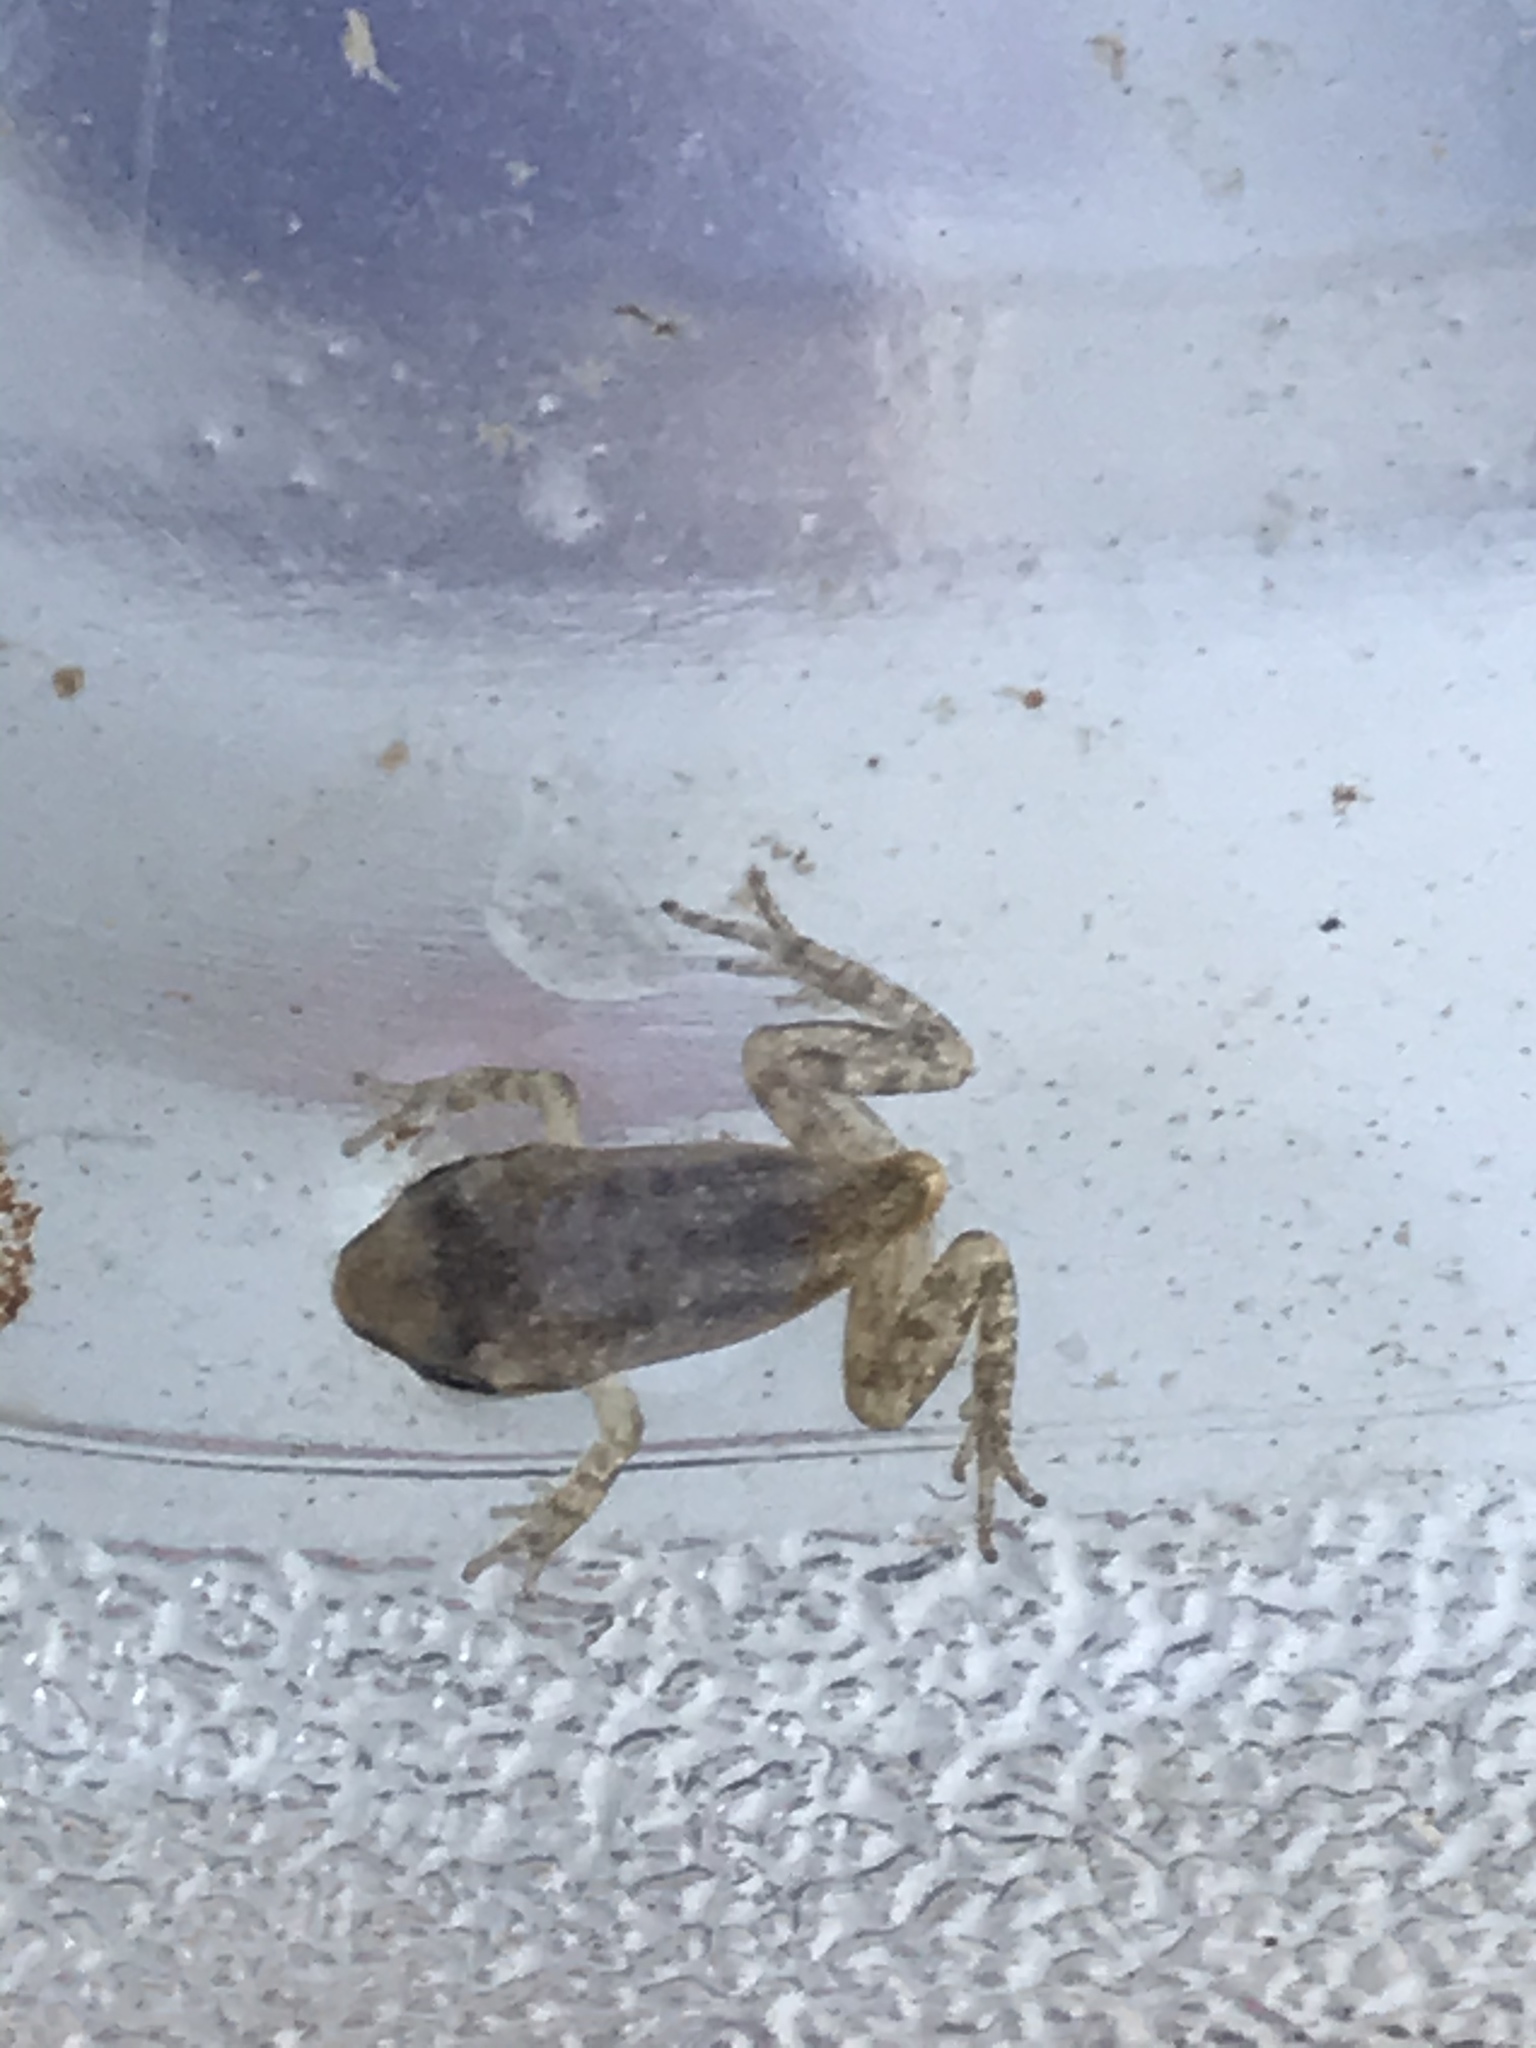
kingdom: Animalia
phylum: Chordata
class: Amphibia
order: Anura
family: Hylidae
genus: Pseudacris
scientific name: Pseudacris crucifer
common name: Spring peeper
